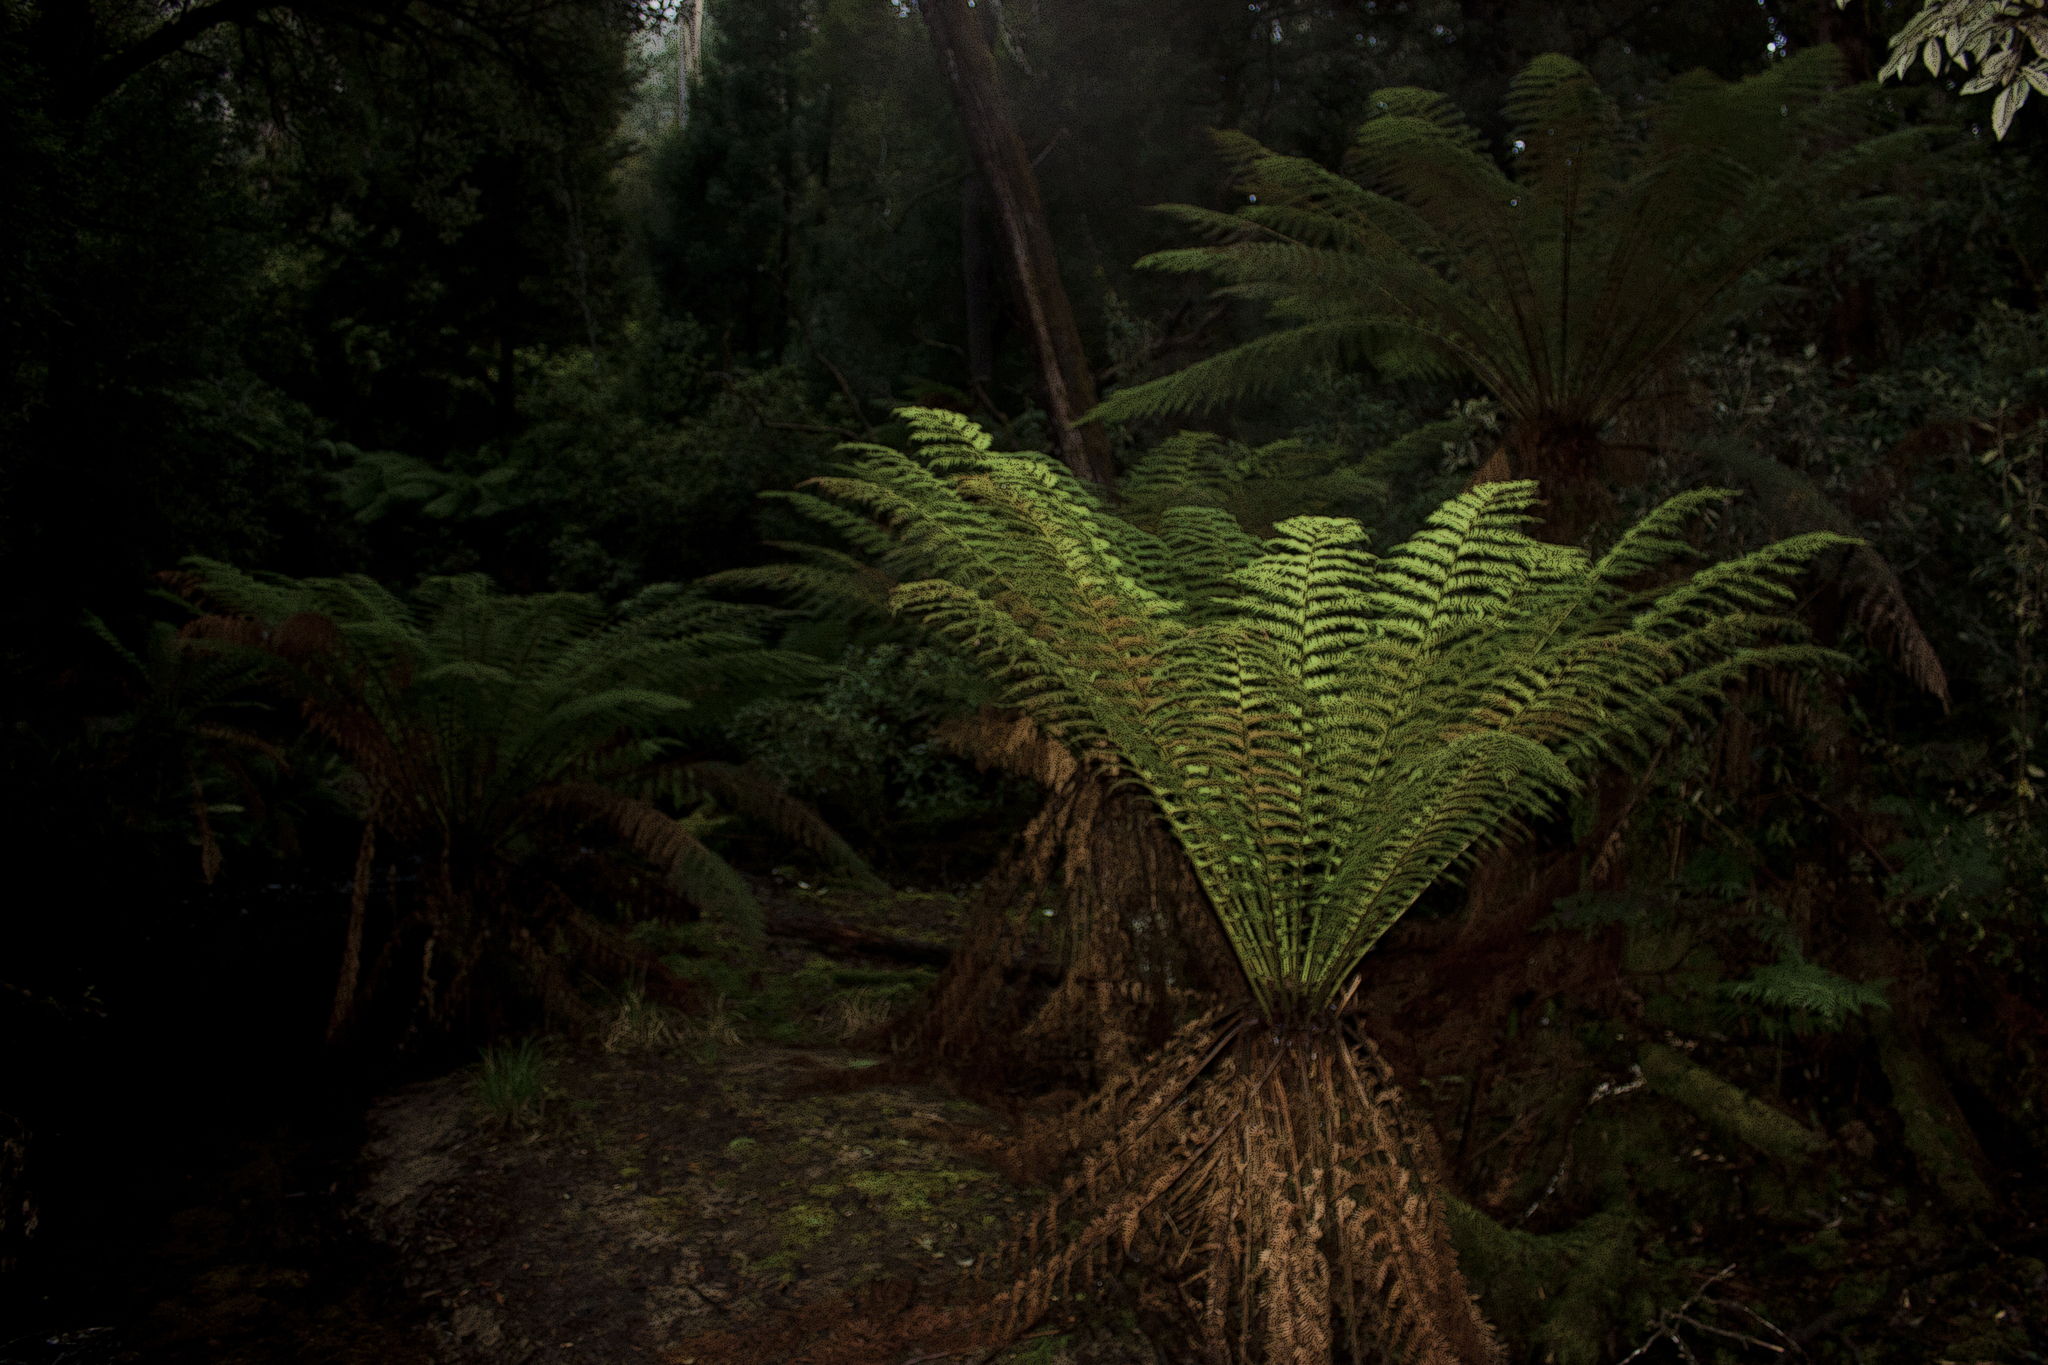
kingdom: Plantae
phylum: Tracheophyta
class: Polypodiopsida
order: Cyatheales
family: Dicksoniaceae
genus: Dicksonia
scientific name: Dicksonia antarctica
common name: Australian treefern
